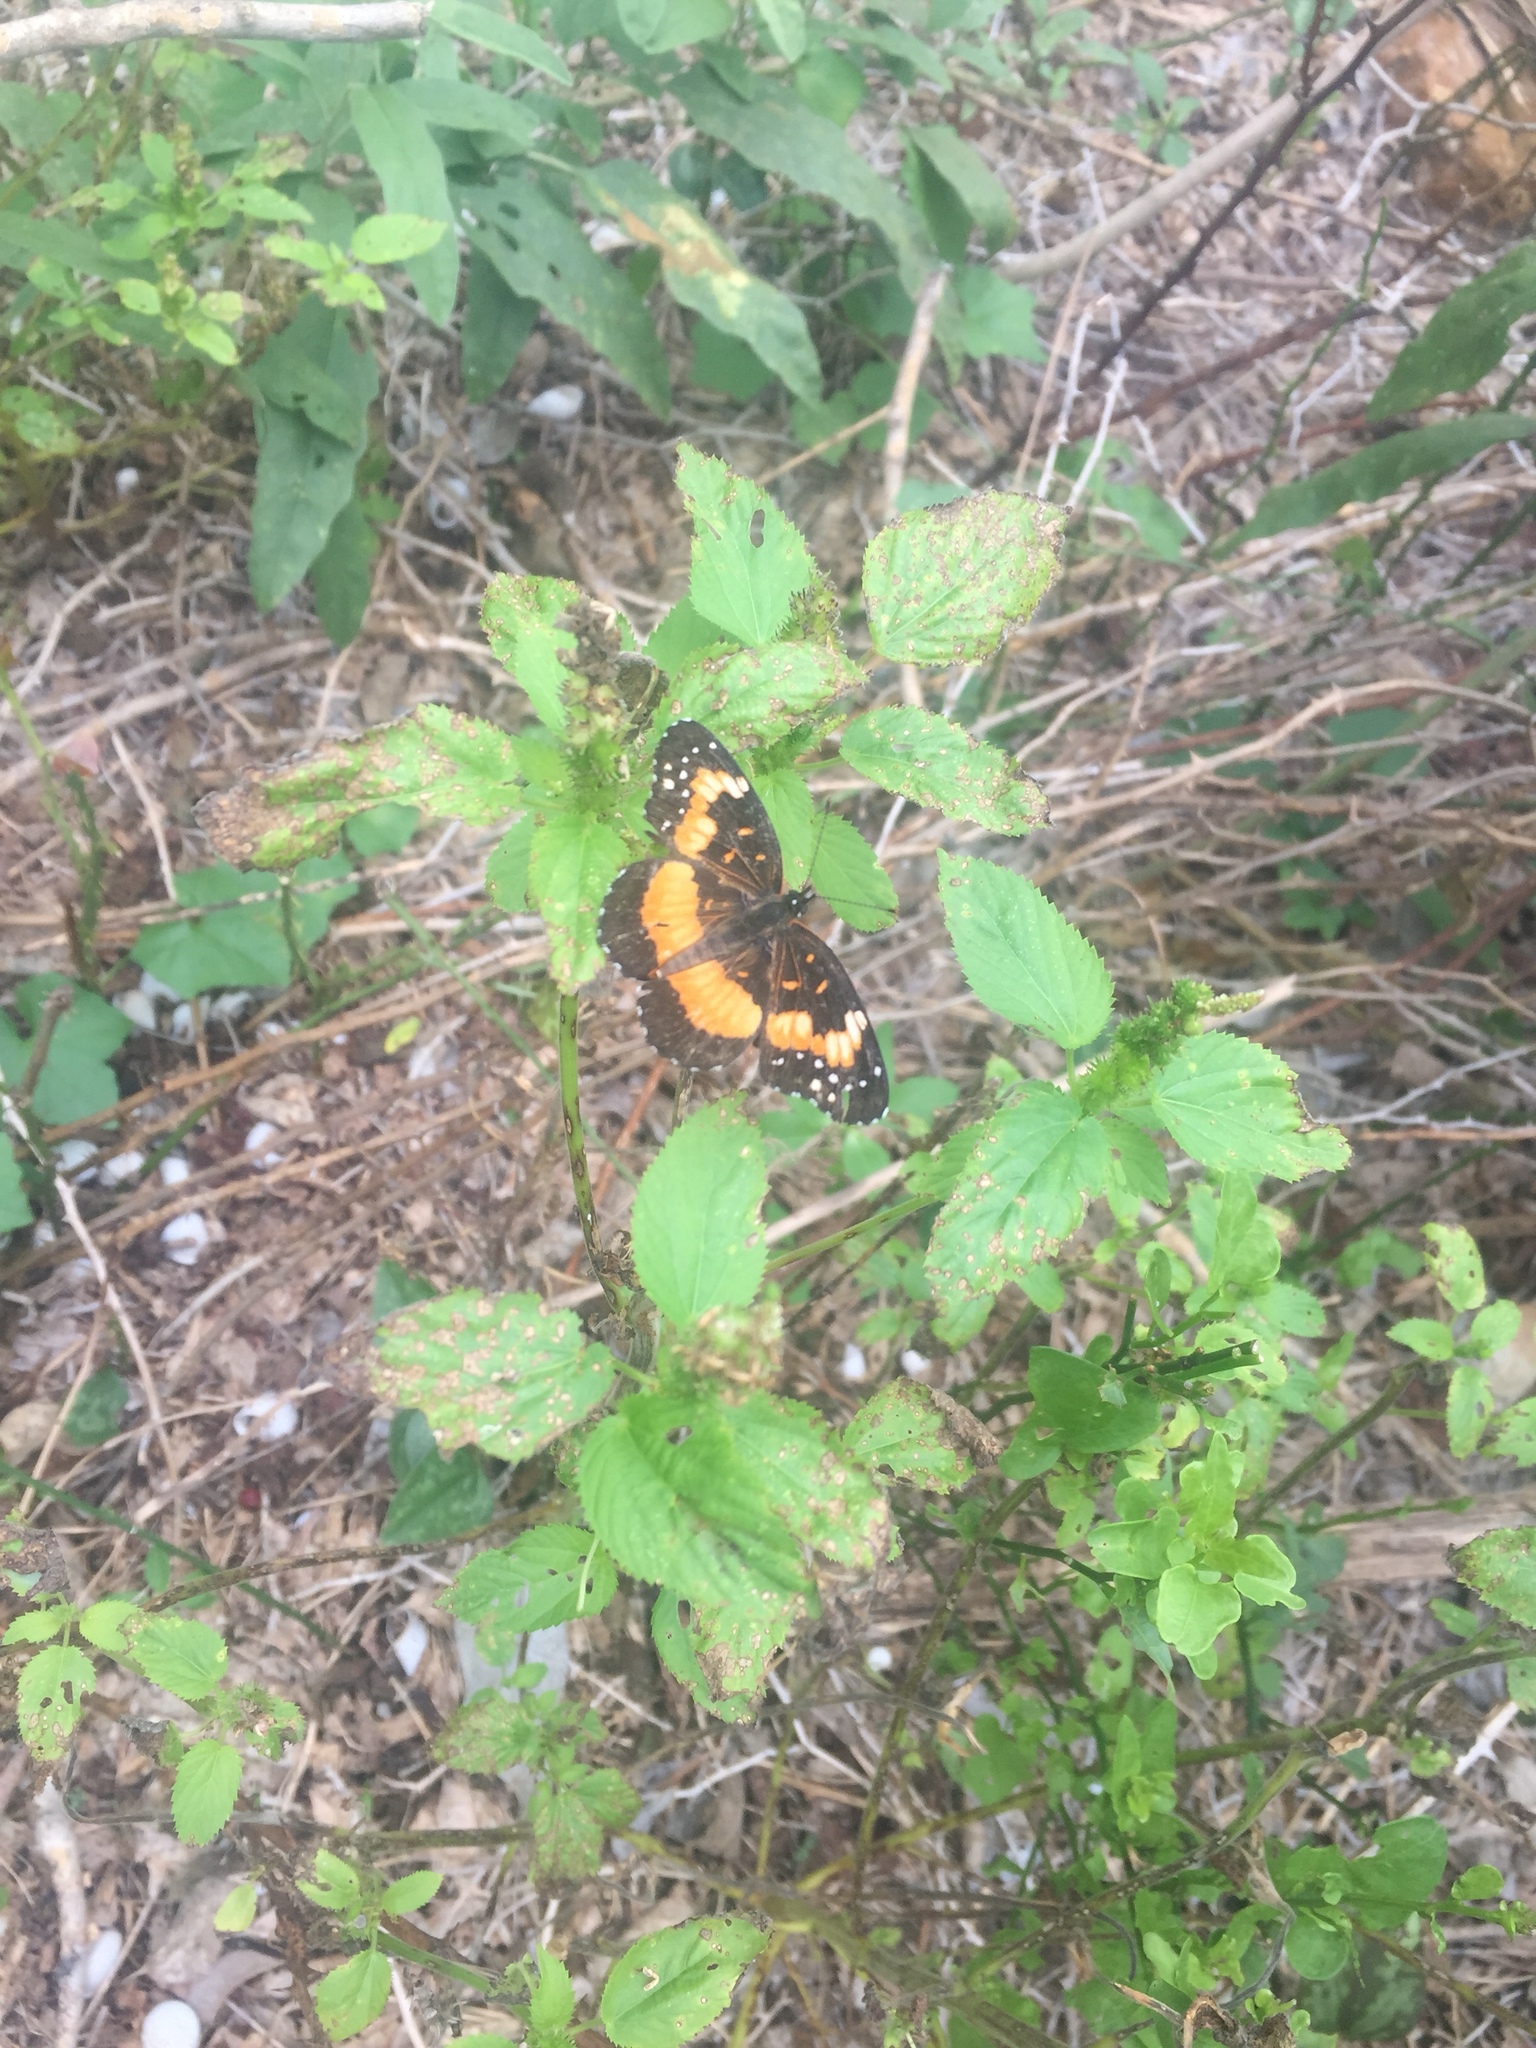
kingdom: Animalia
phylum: Arthropoda
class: Insecta
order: Lepidoptera
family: Nymphalidae
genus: Chlosyne
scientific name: Chlosyne lacinia
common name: Bordered patch
